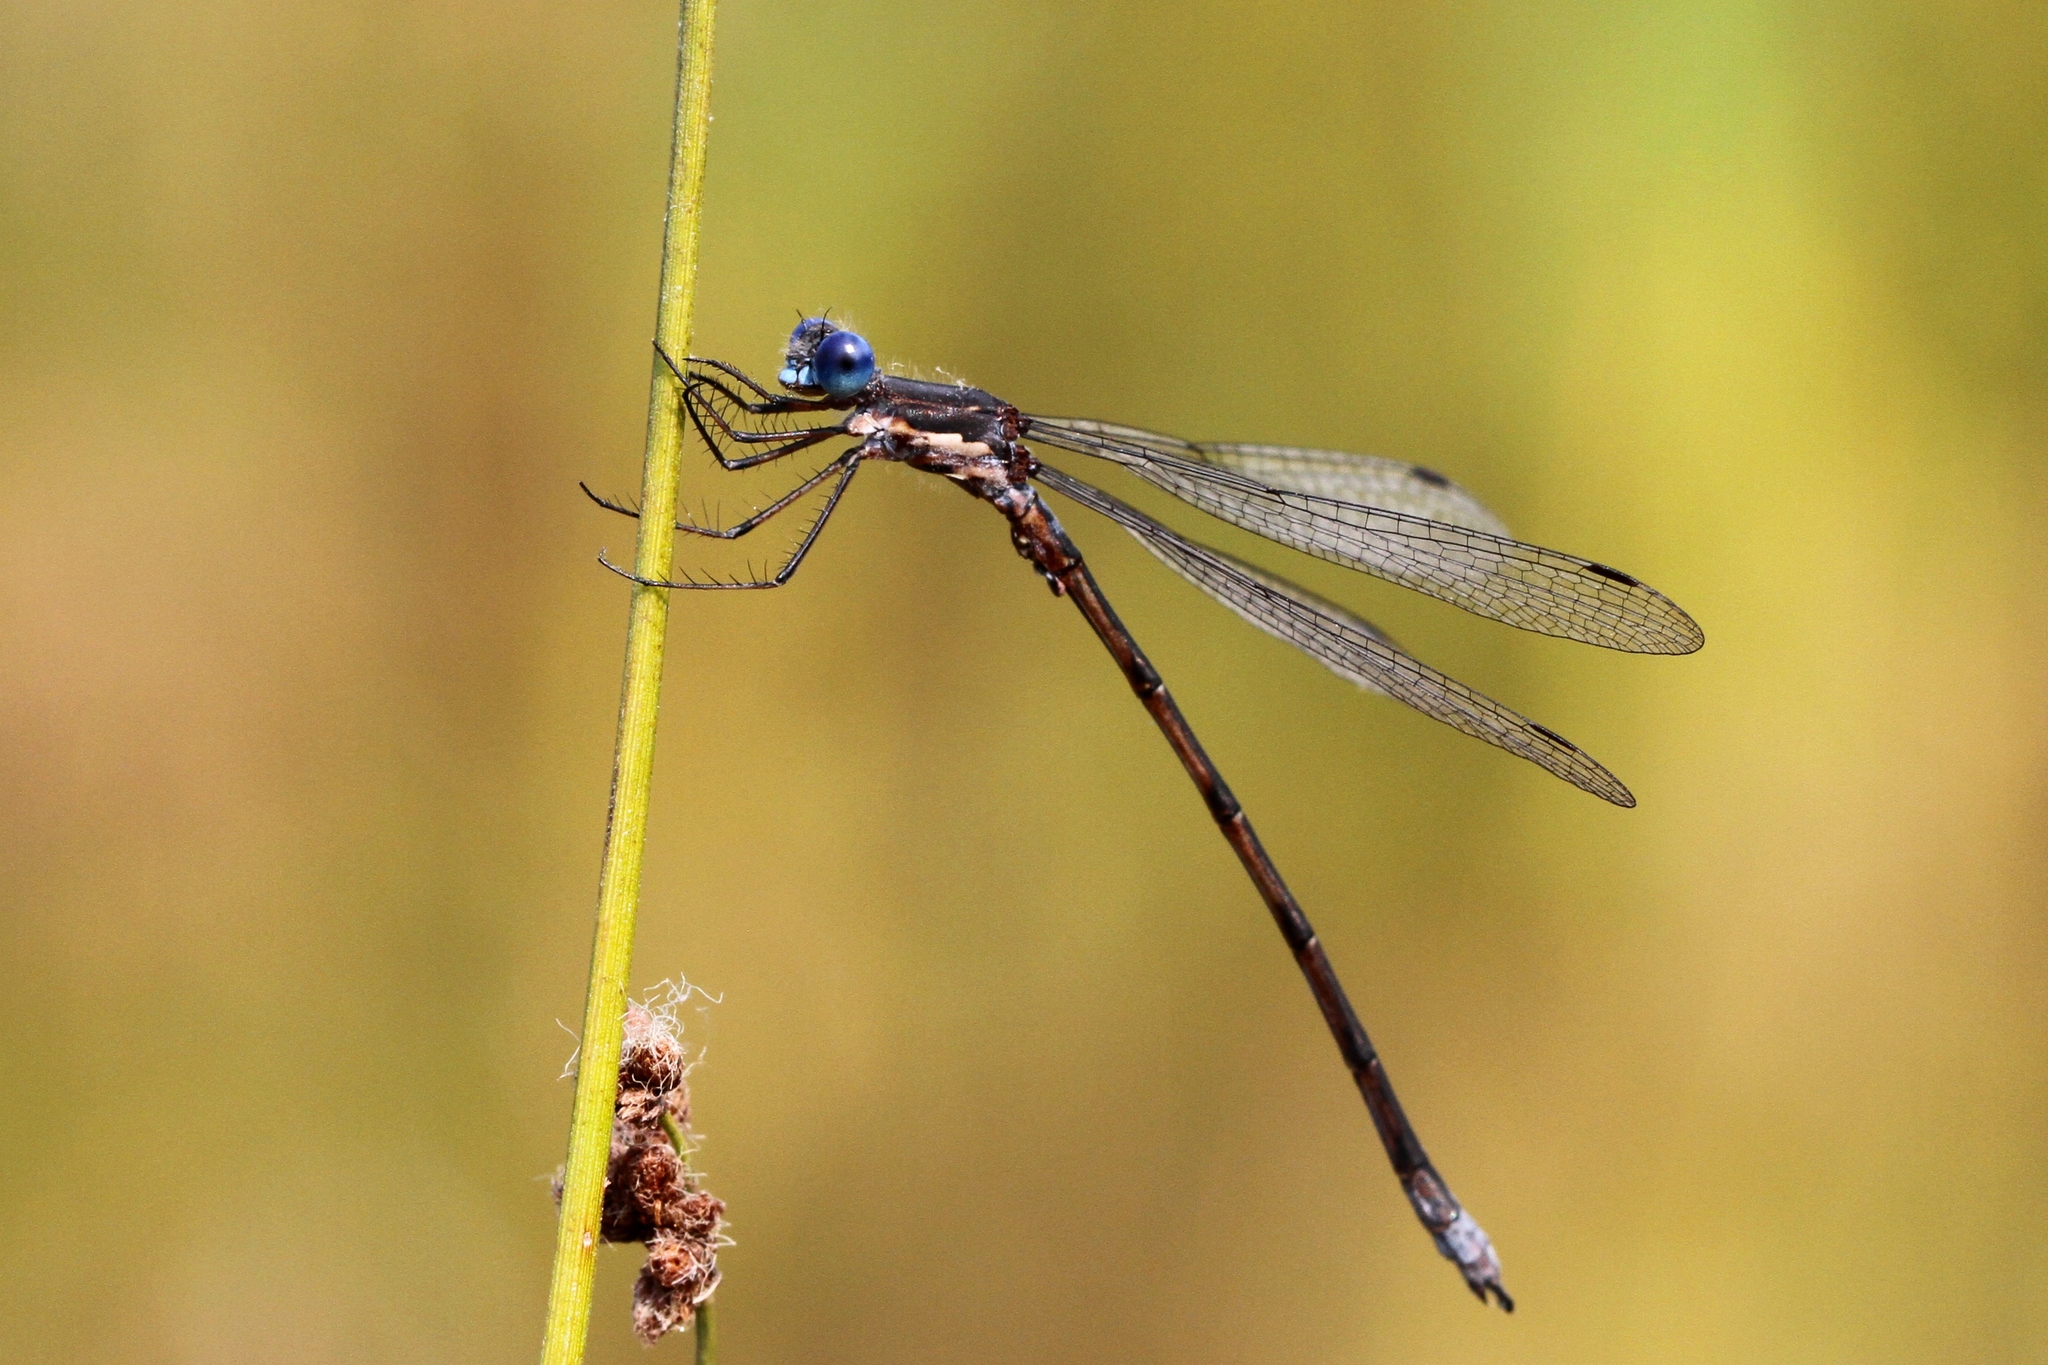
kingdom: Animalia
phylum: Arthropoda
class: Insecta
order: Odonata
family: Lestidae
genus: Lestes
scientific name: Lestes congener
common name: Spotted spreadwing
